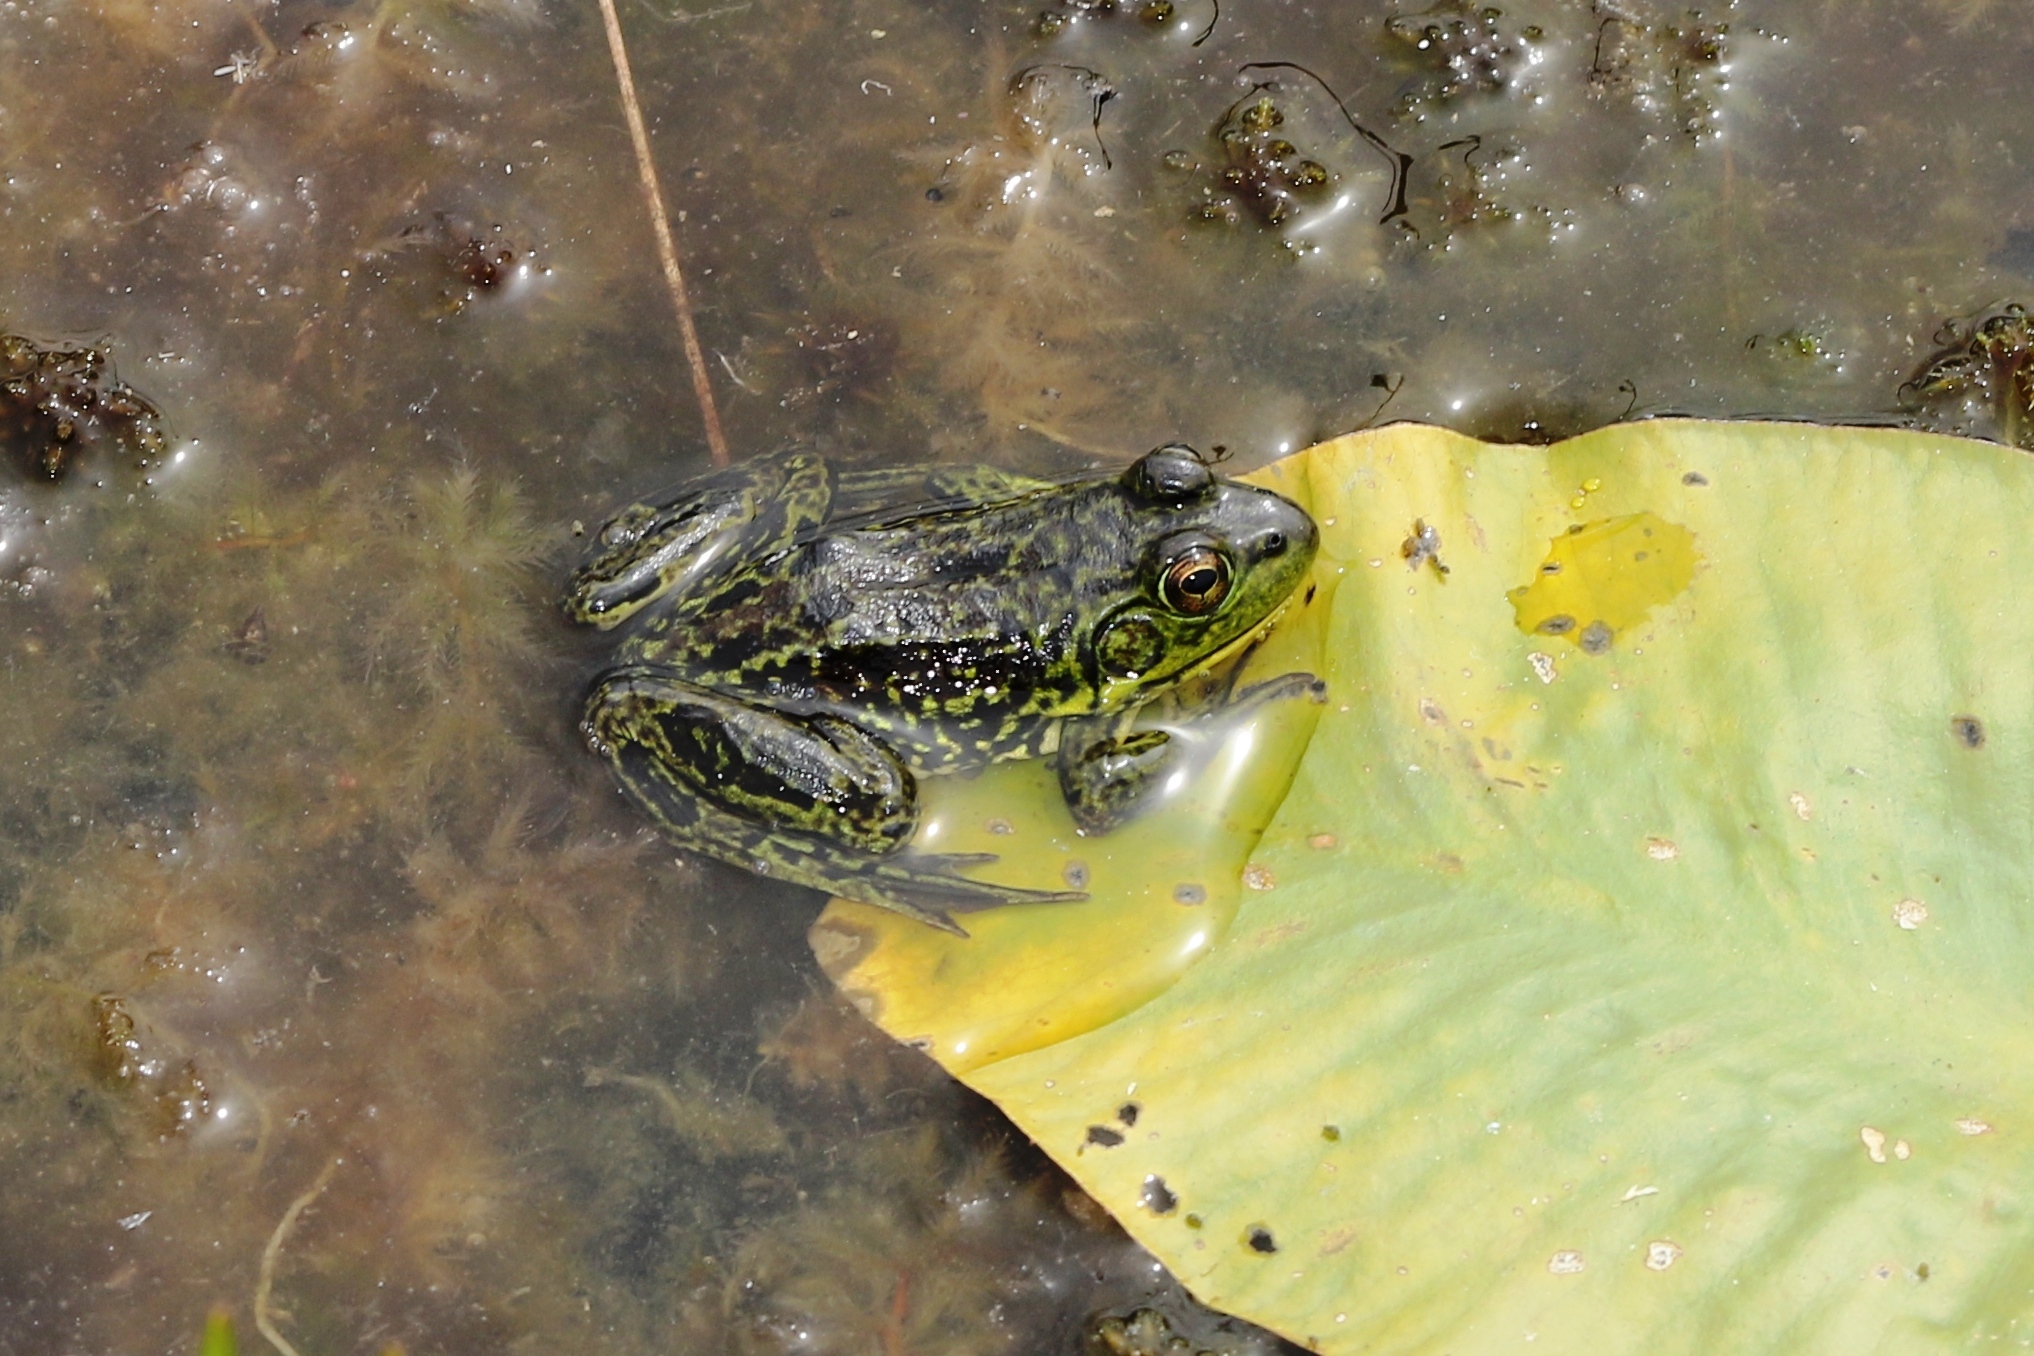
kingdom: Animalia
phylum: Chordata
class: Amphibia
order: Anura
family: Ranidae
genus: Lithobates
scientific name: Lithobates septentrionalis
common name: Mink frog
